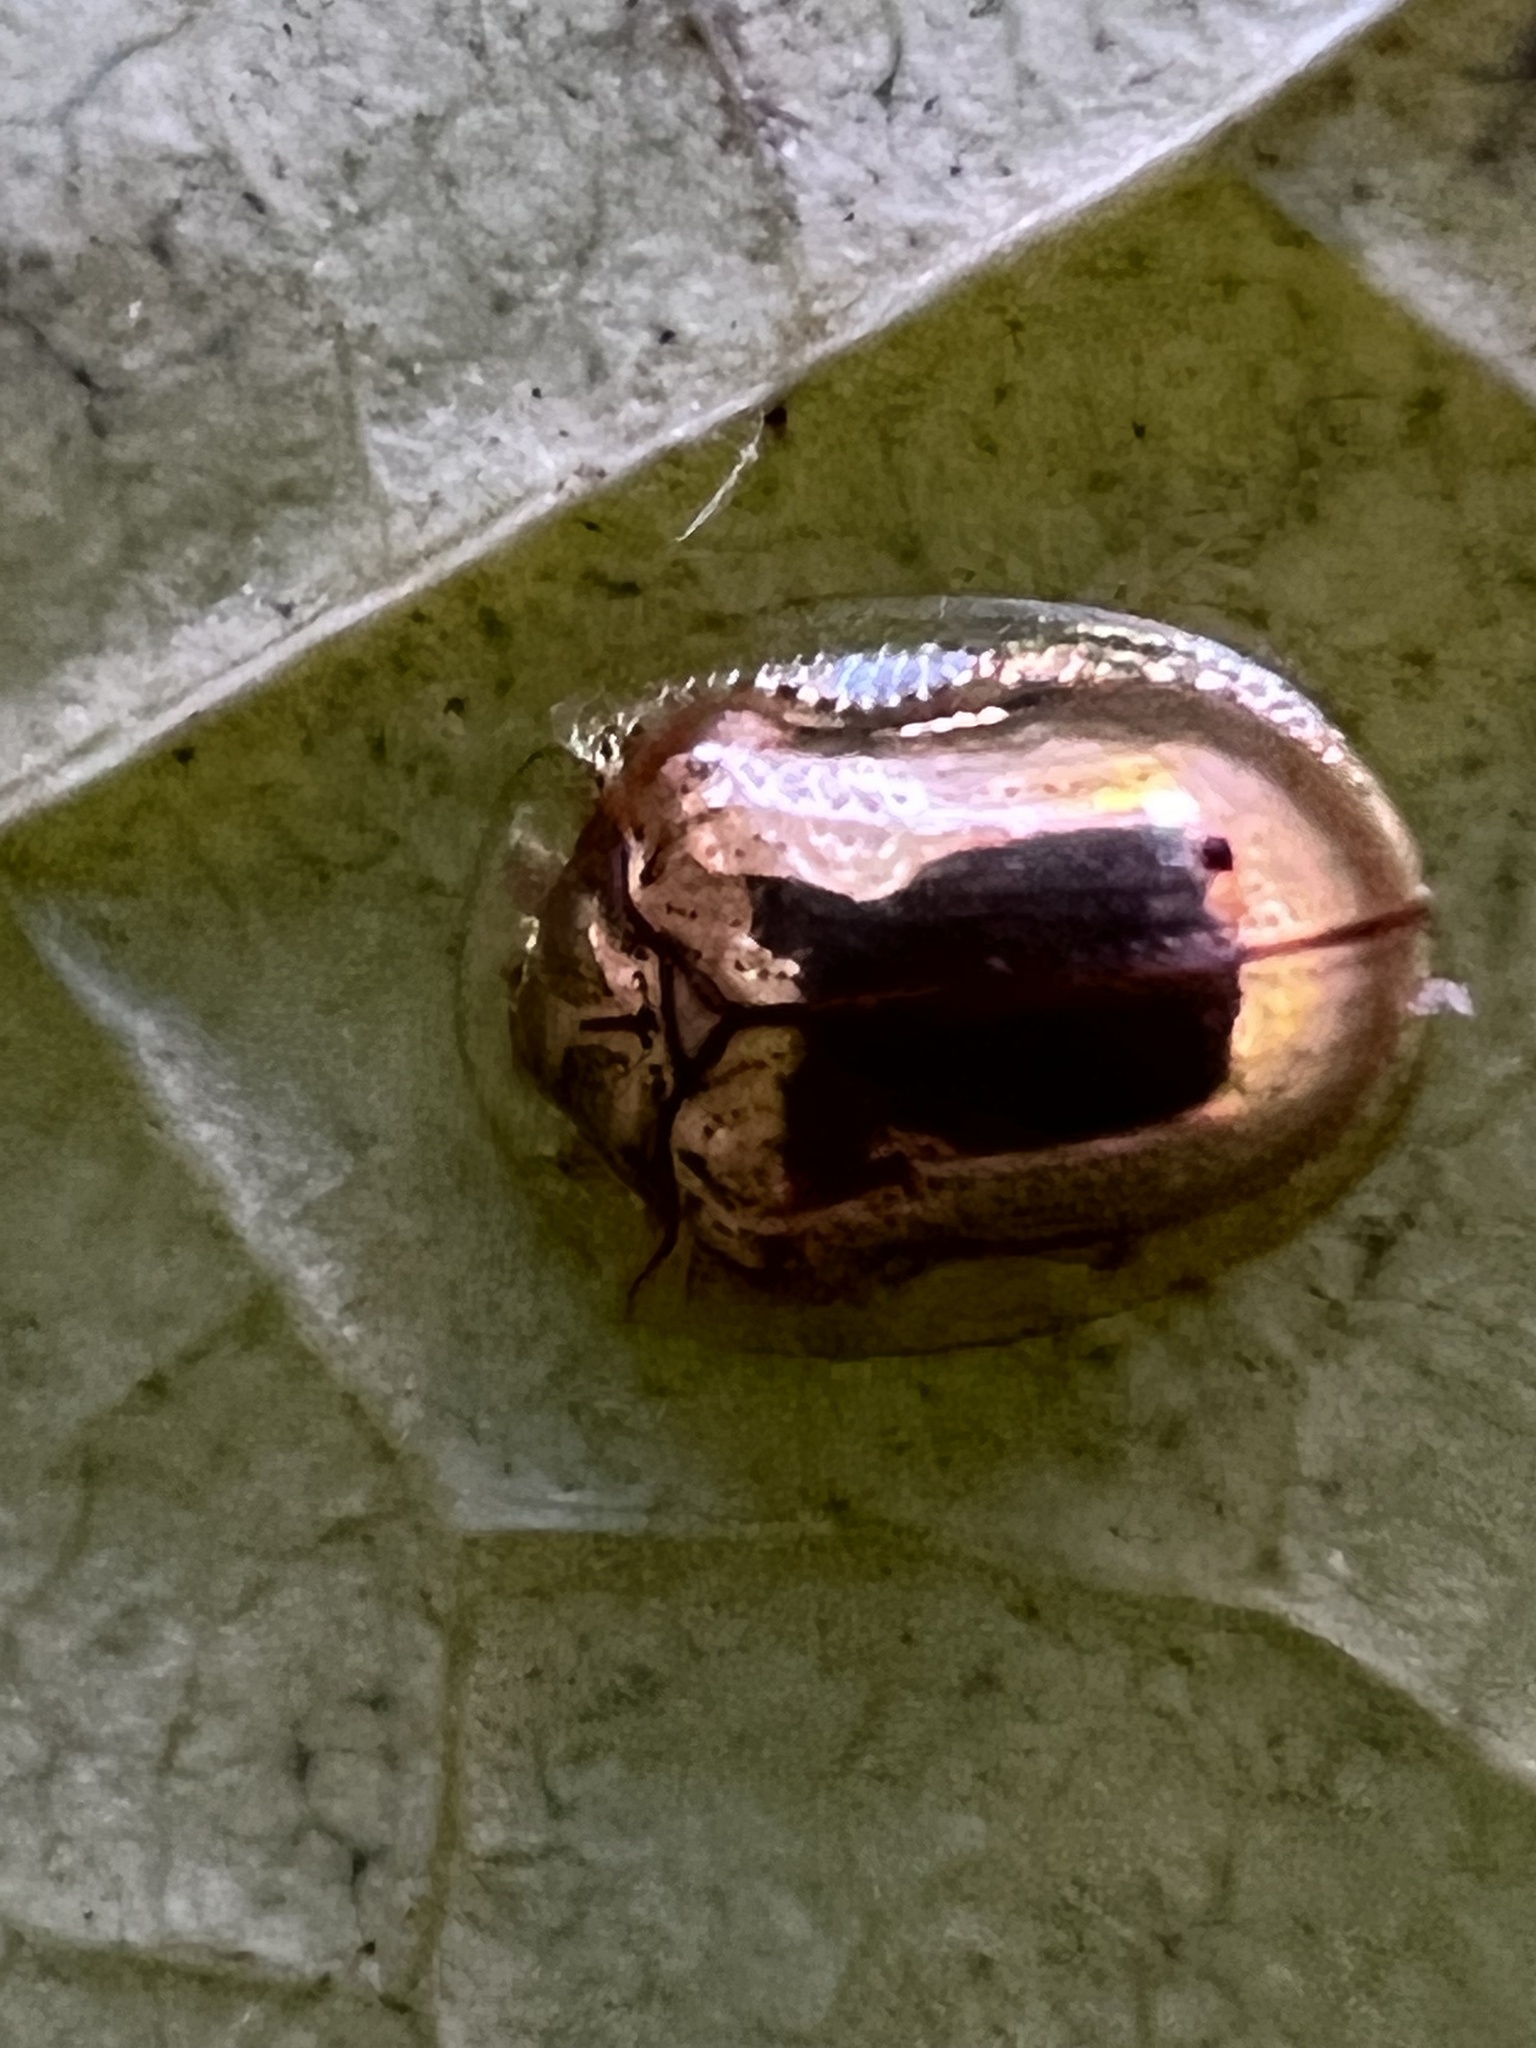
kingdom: Animalia
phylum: Arthropoda
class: Insecta
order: Coleoptera
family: Chrysomelidae
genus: Charidotella
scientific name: Charidotella sexpunctata
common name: Golden tortoise beetle
